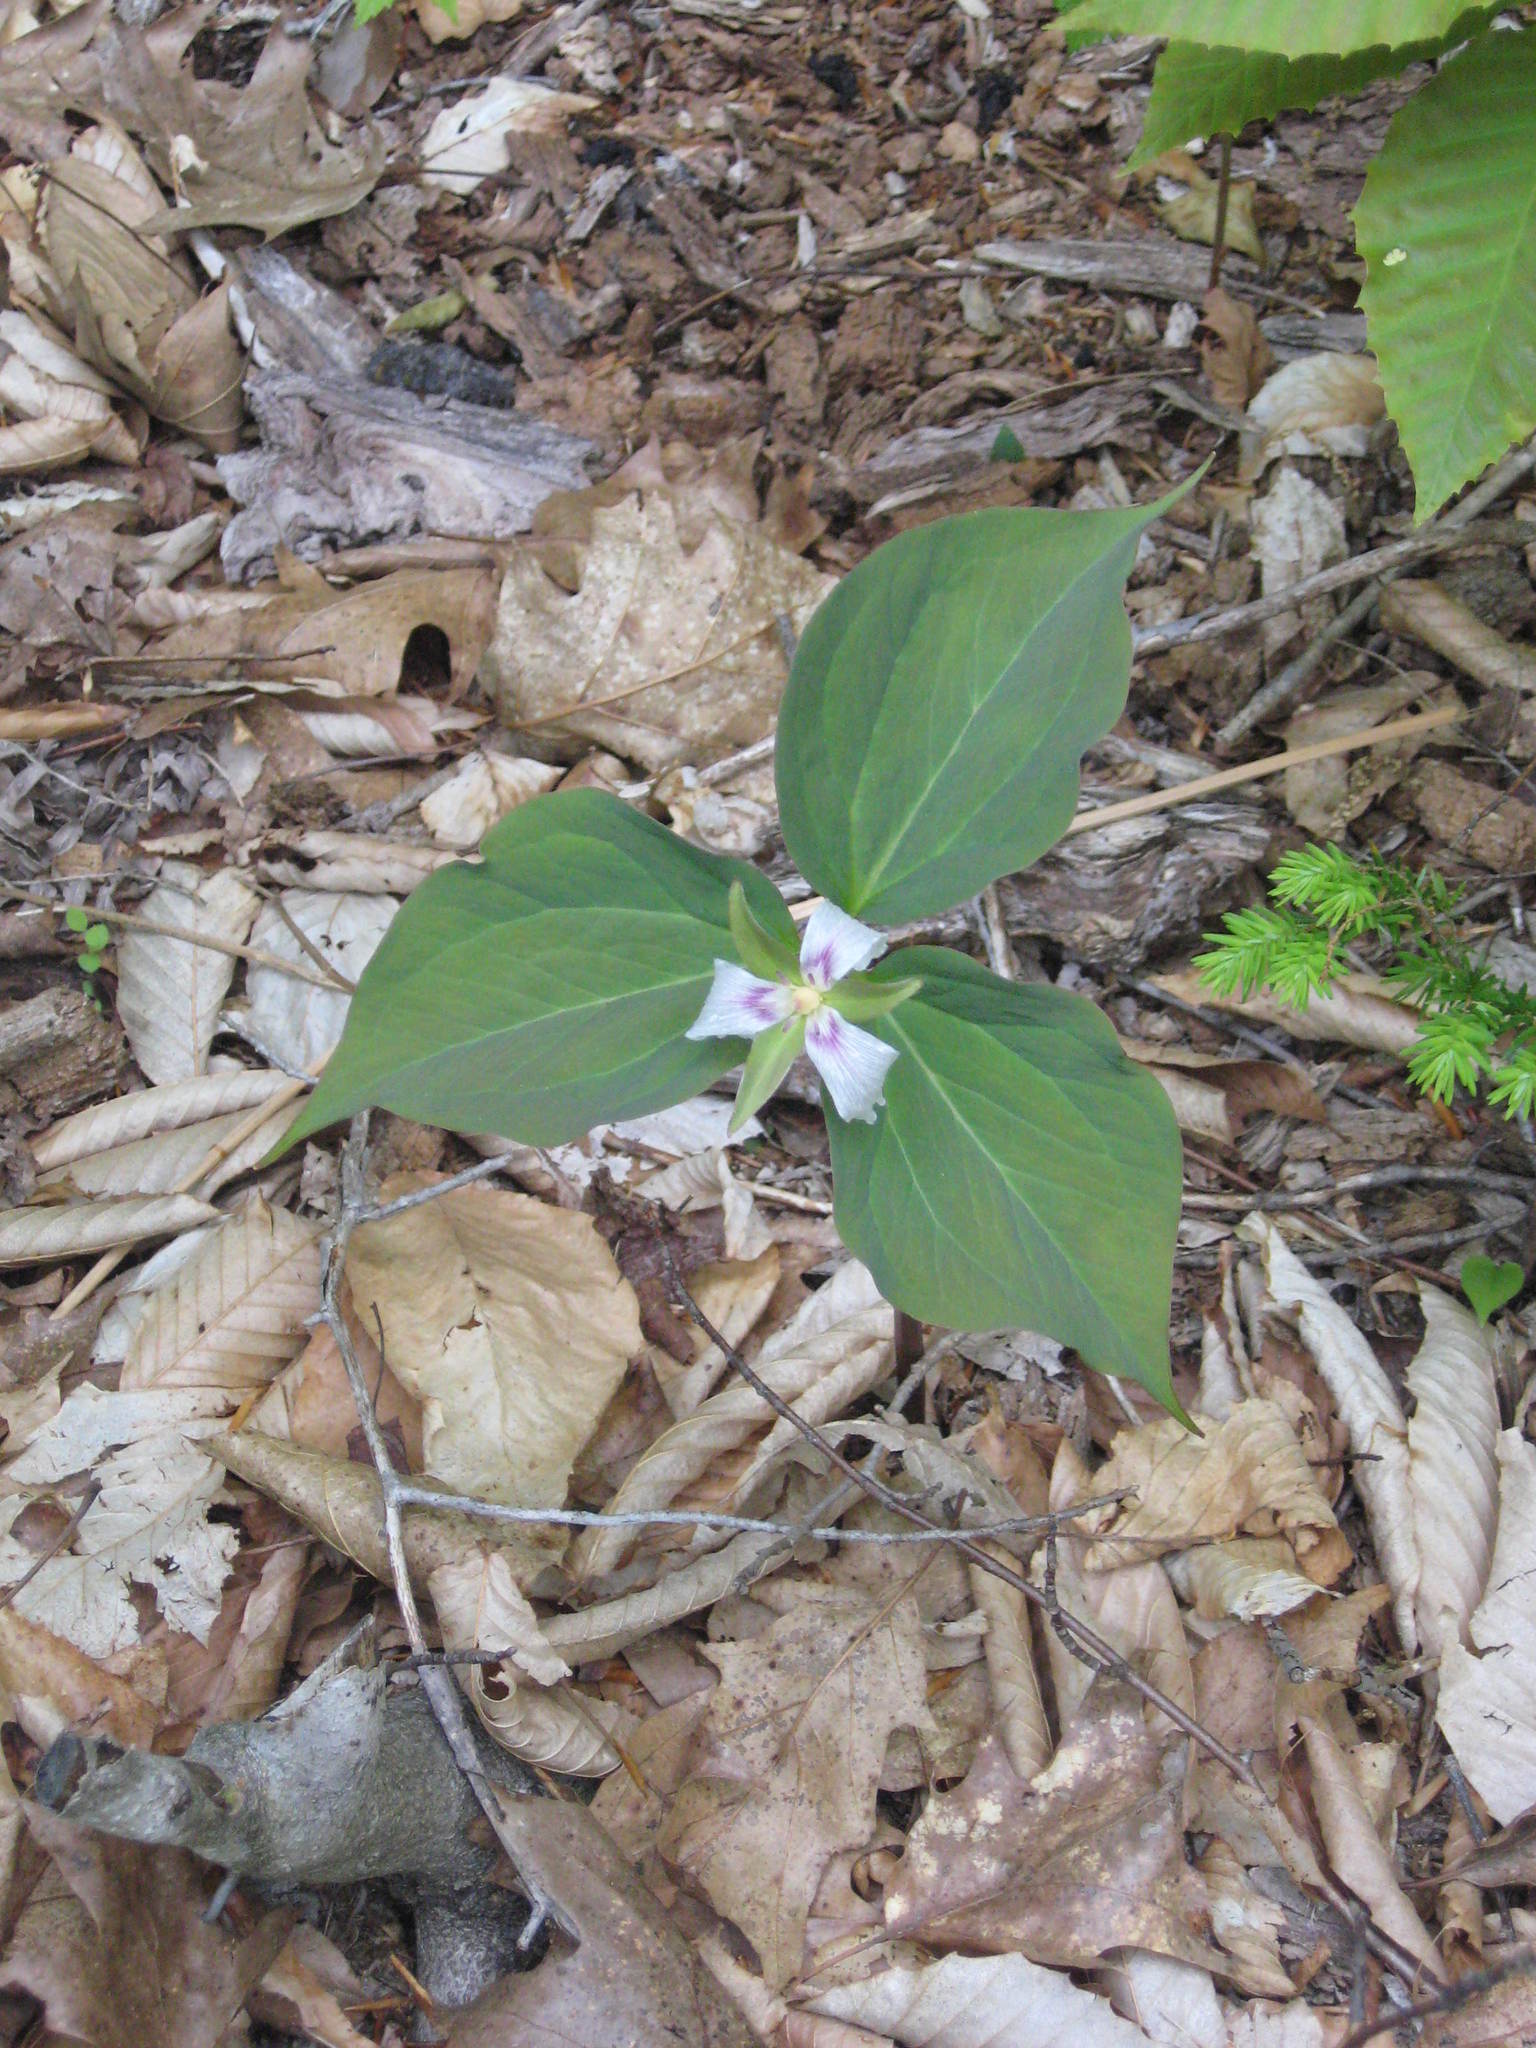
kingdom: Plantae
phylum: Tracheophyta
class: Liliopsida
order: Liliales
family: Melanthiaceae
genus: Trillium
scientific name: Trillium undulatum
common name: Paint trillium
